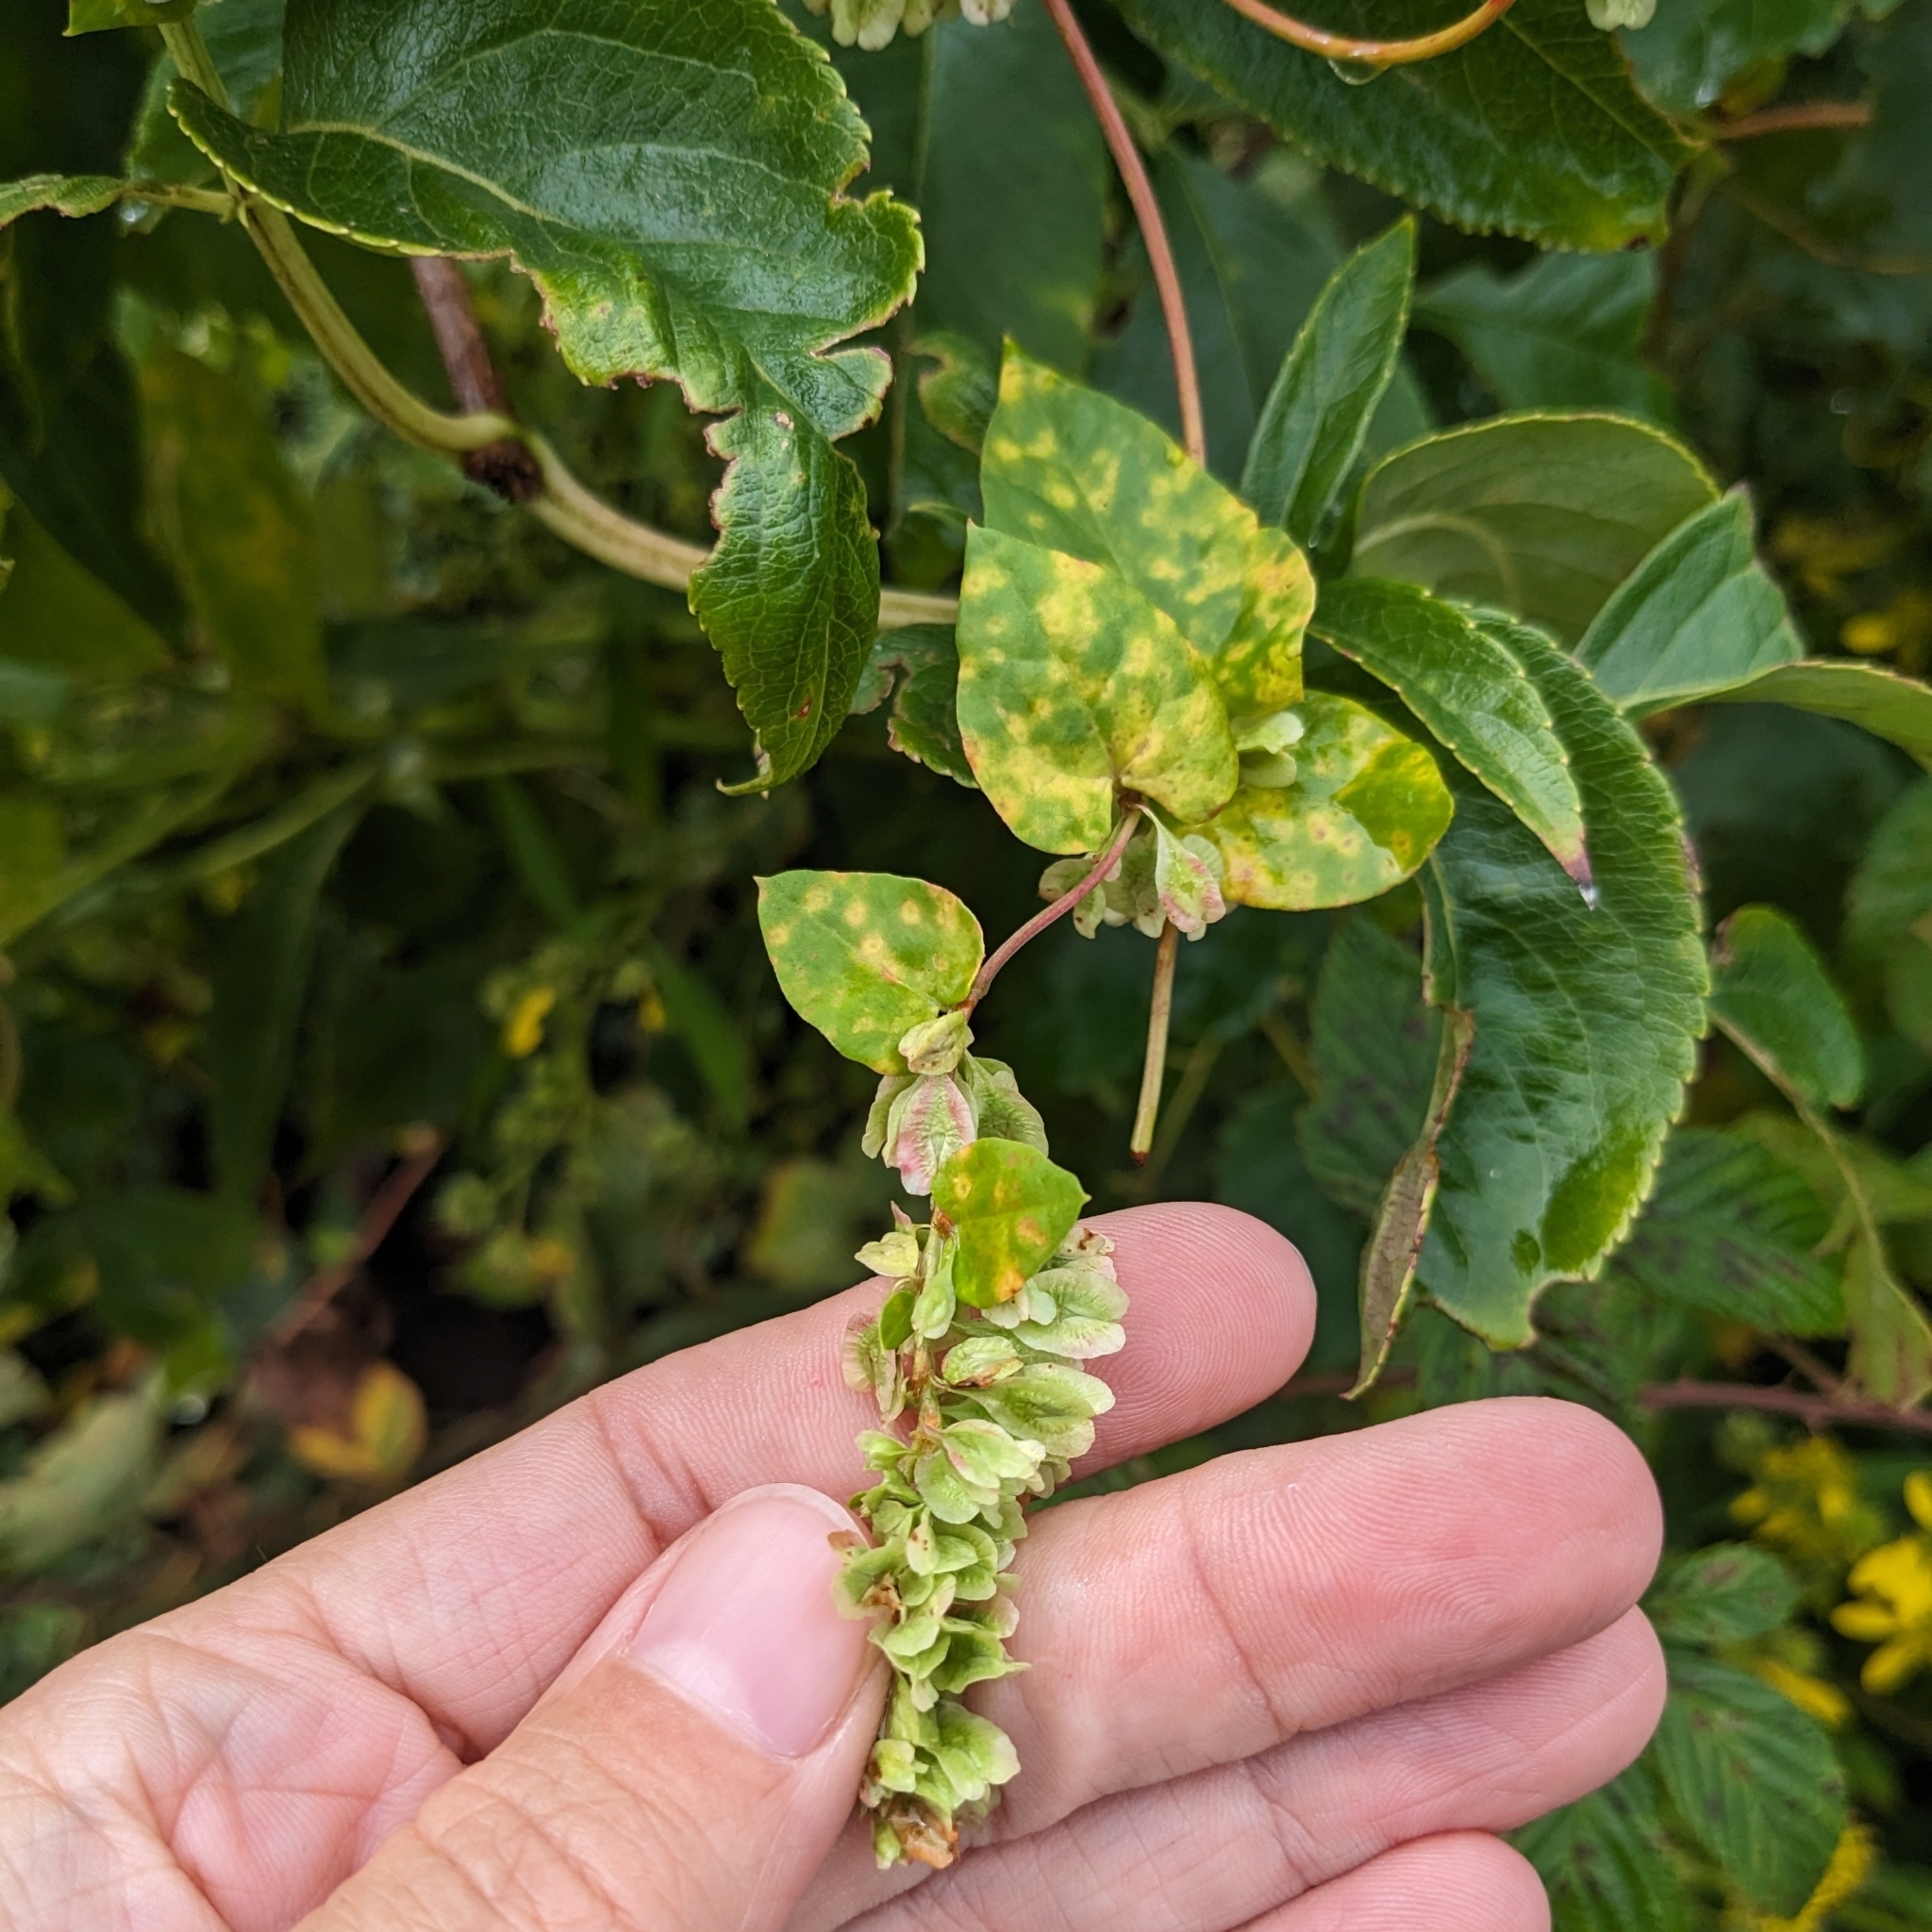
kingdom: Plantae
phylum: Tracheophyta
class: Magnoliopsida
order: Caryophyllales
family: Polygonaceae
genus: Fallopia
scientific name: Fallopia scandens
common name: Climbing false buckwheat
